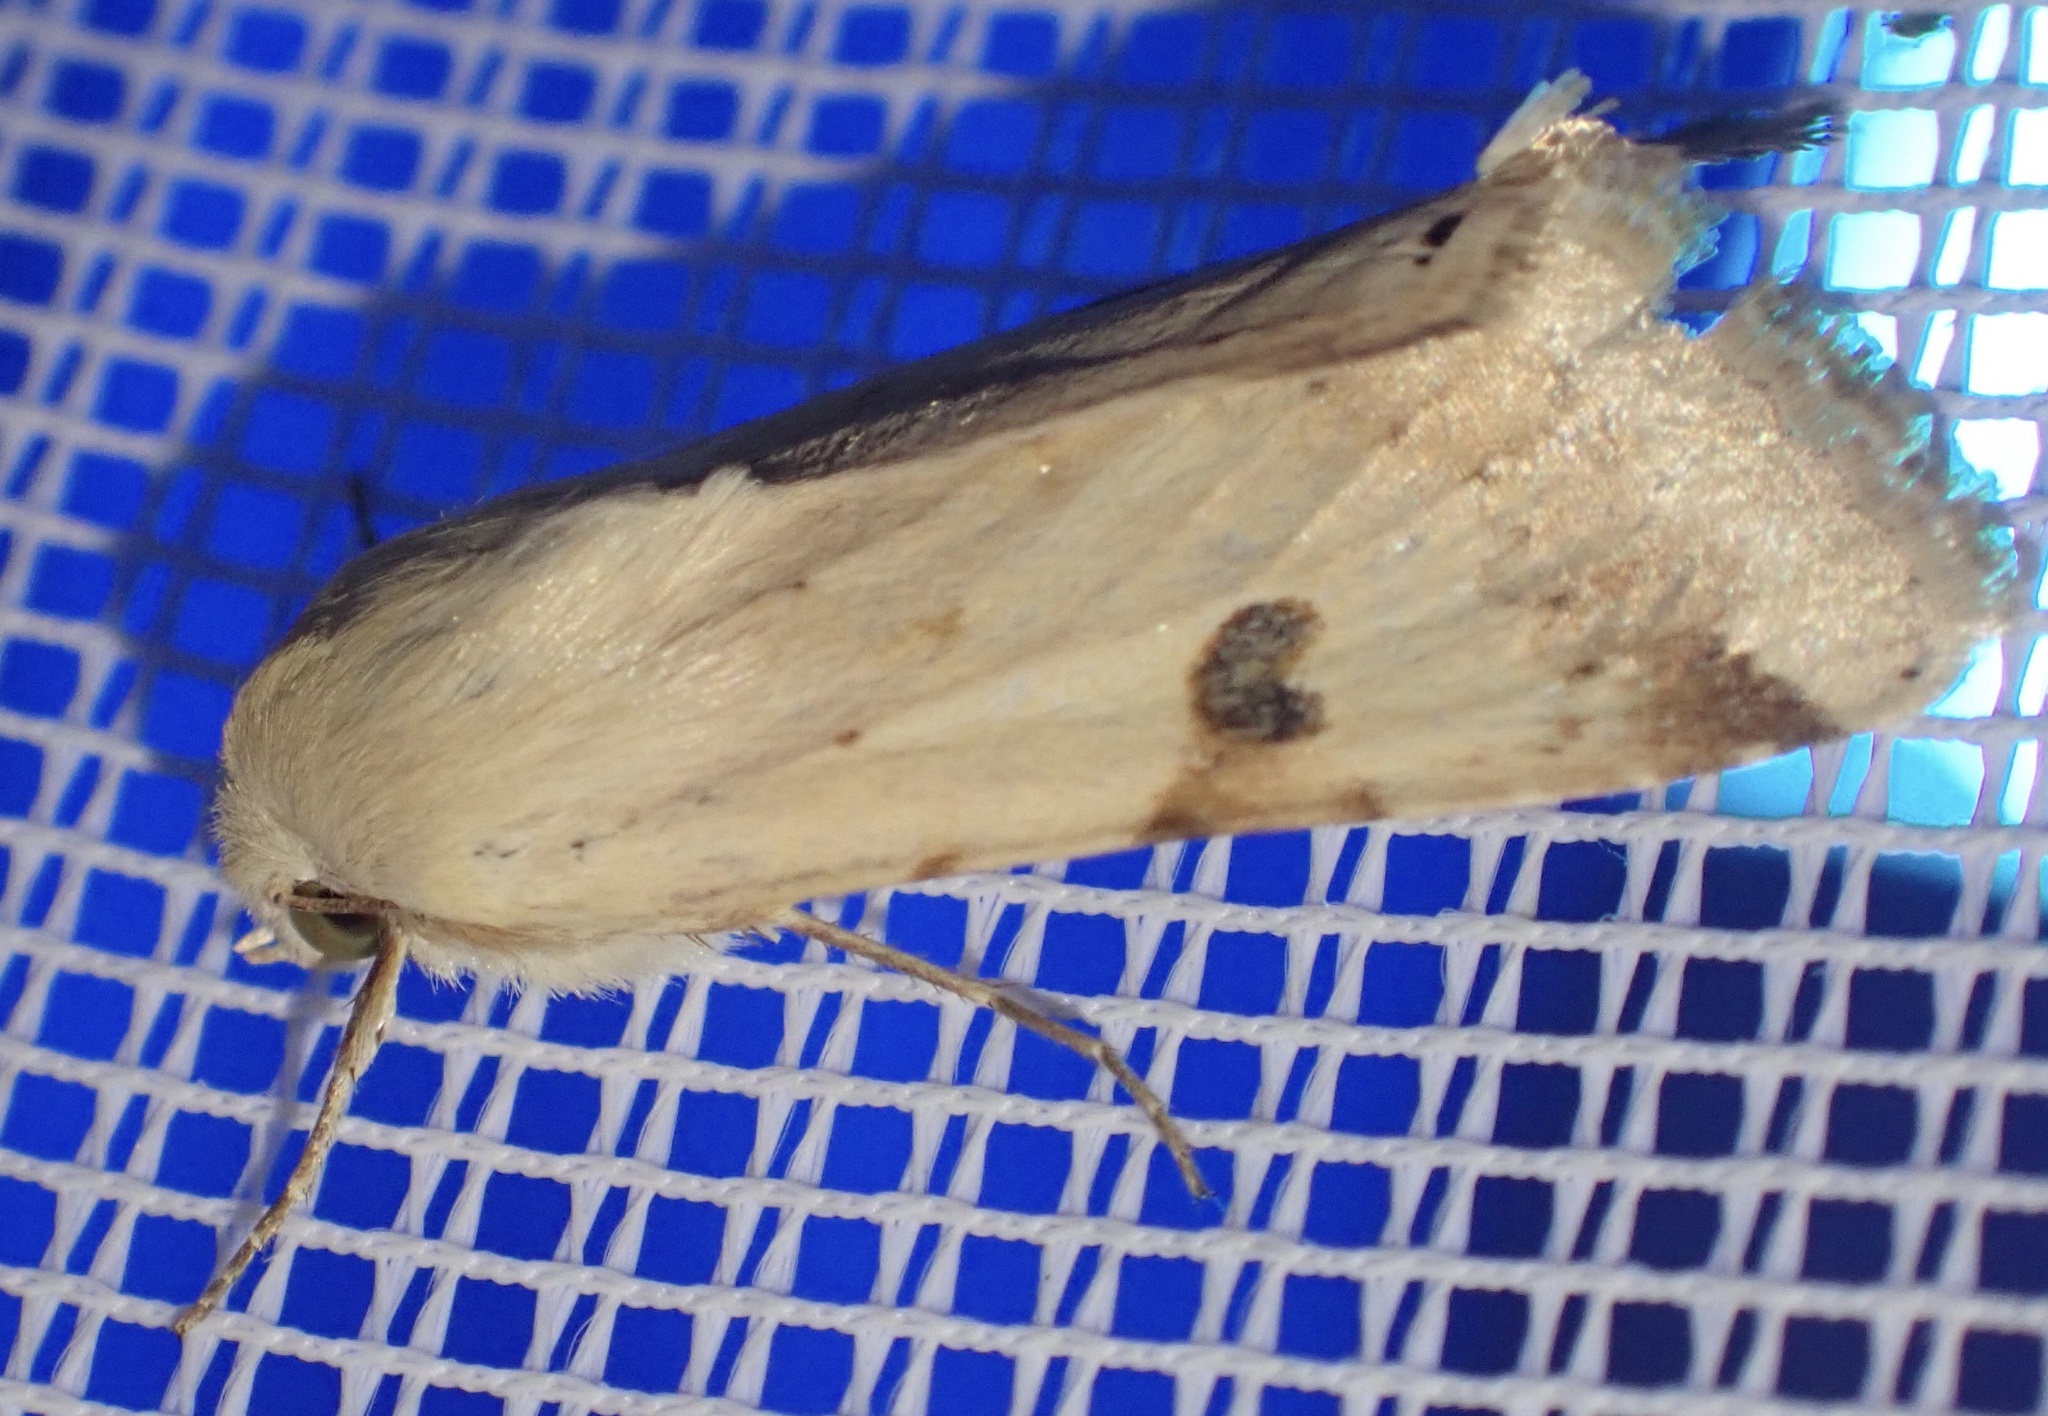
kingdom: Animalia
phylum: Arthropoda
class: Insecta
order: Lepidoptera
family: Noctuidae
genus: Heliothis
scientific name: Heliothis peltigera
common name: Bordered straw
